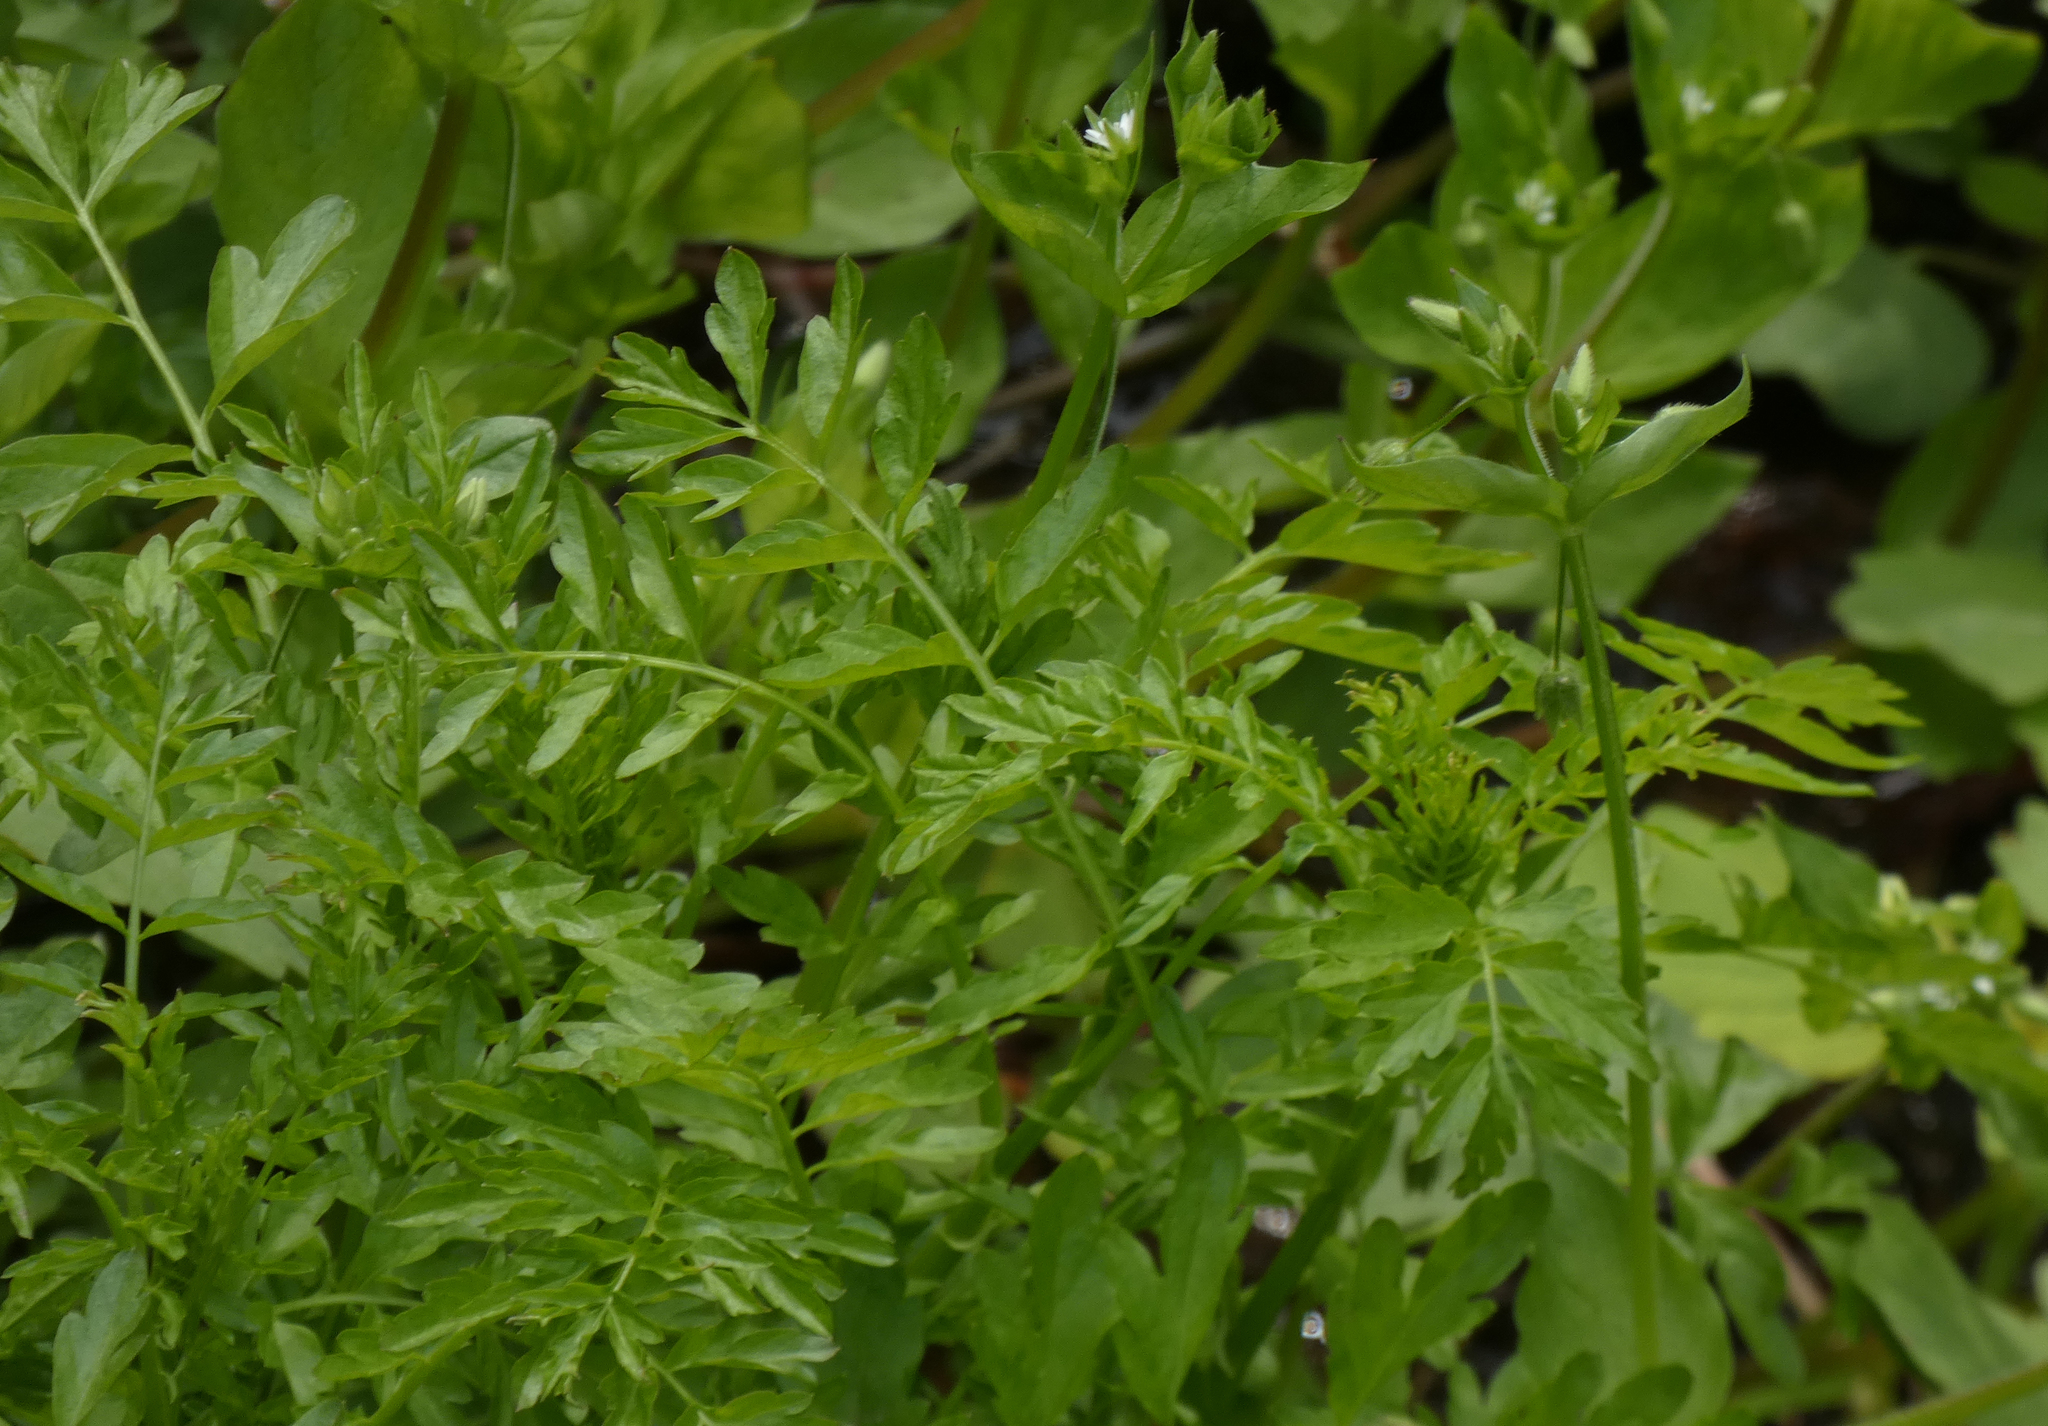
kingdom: Plantae
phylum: Tracheophyta
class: Magnoliopsida
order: Brassicales
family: Brassicaceae
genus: Cardamine
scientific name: Cardamine impatiens
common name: Narrow-leaved bitter-cress
